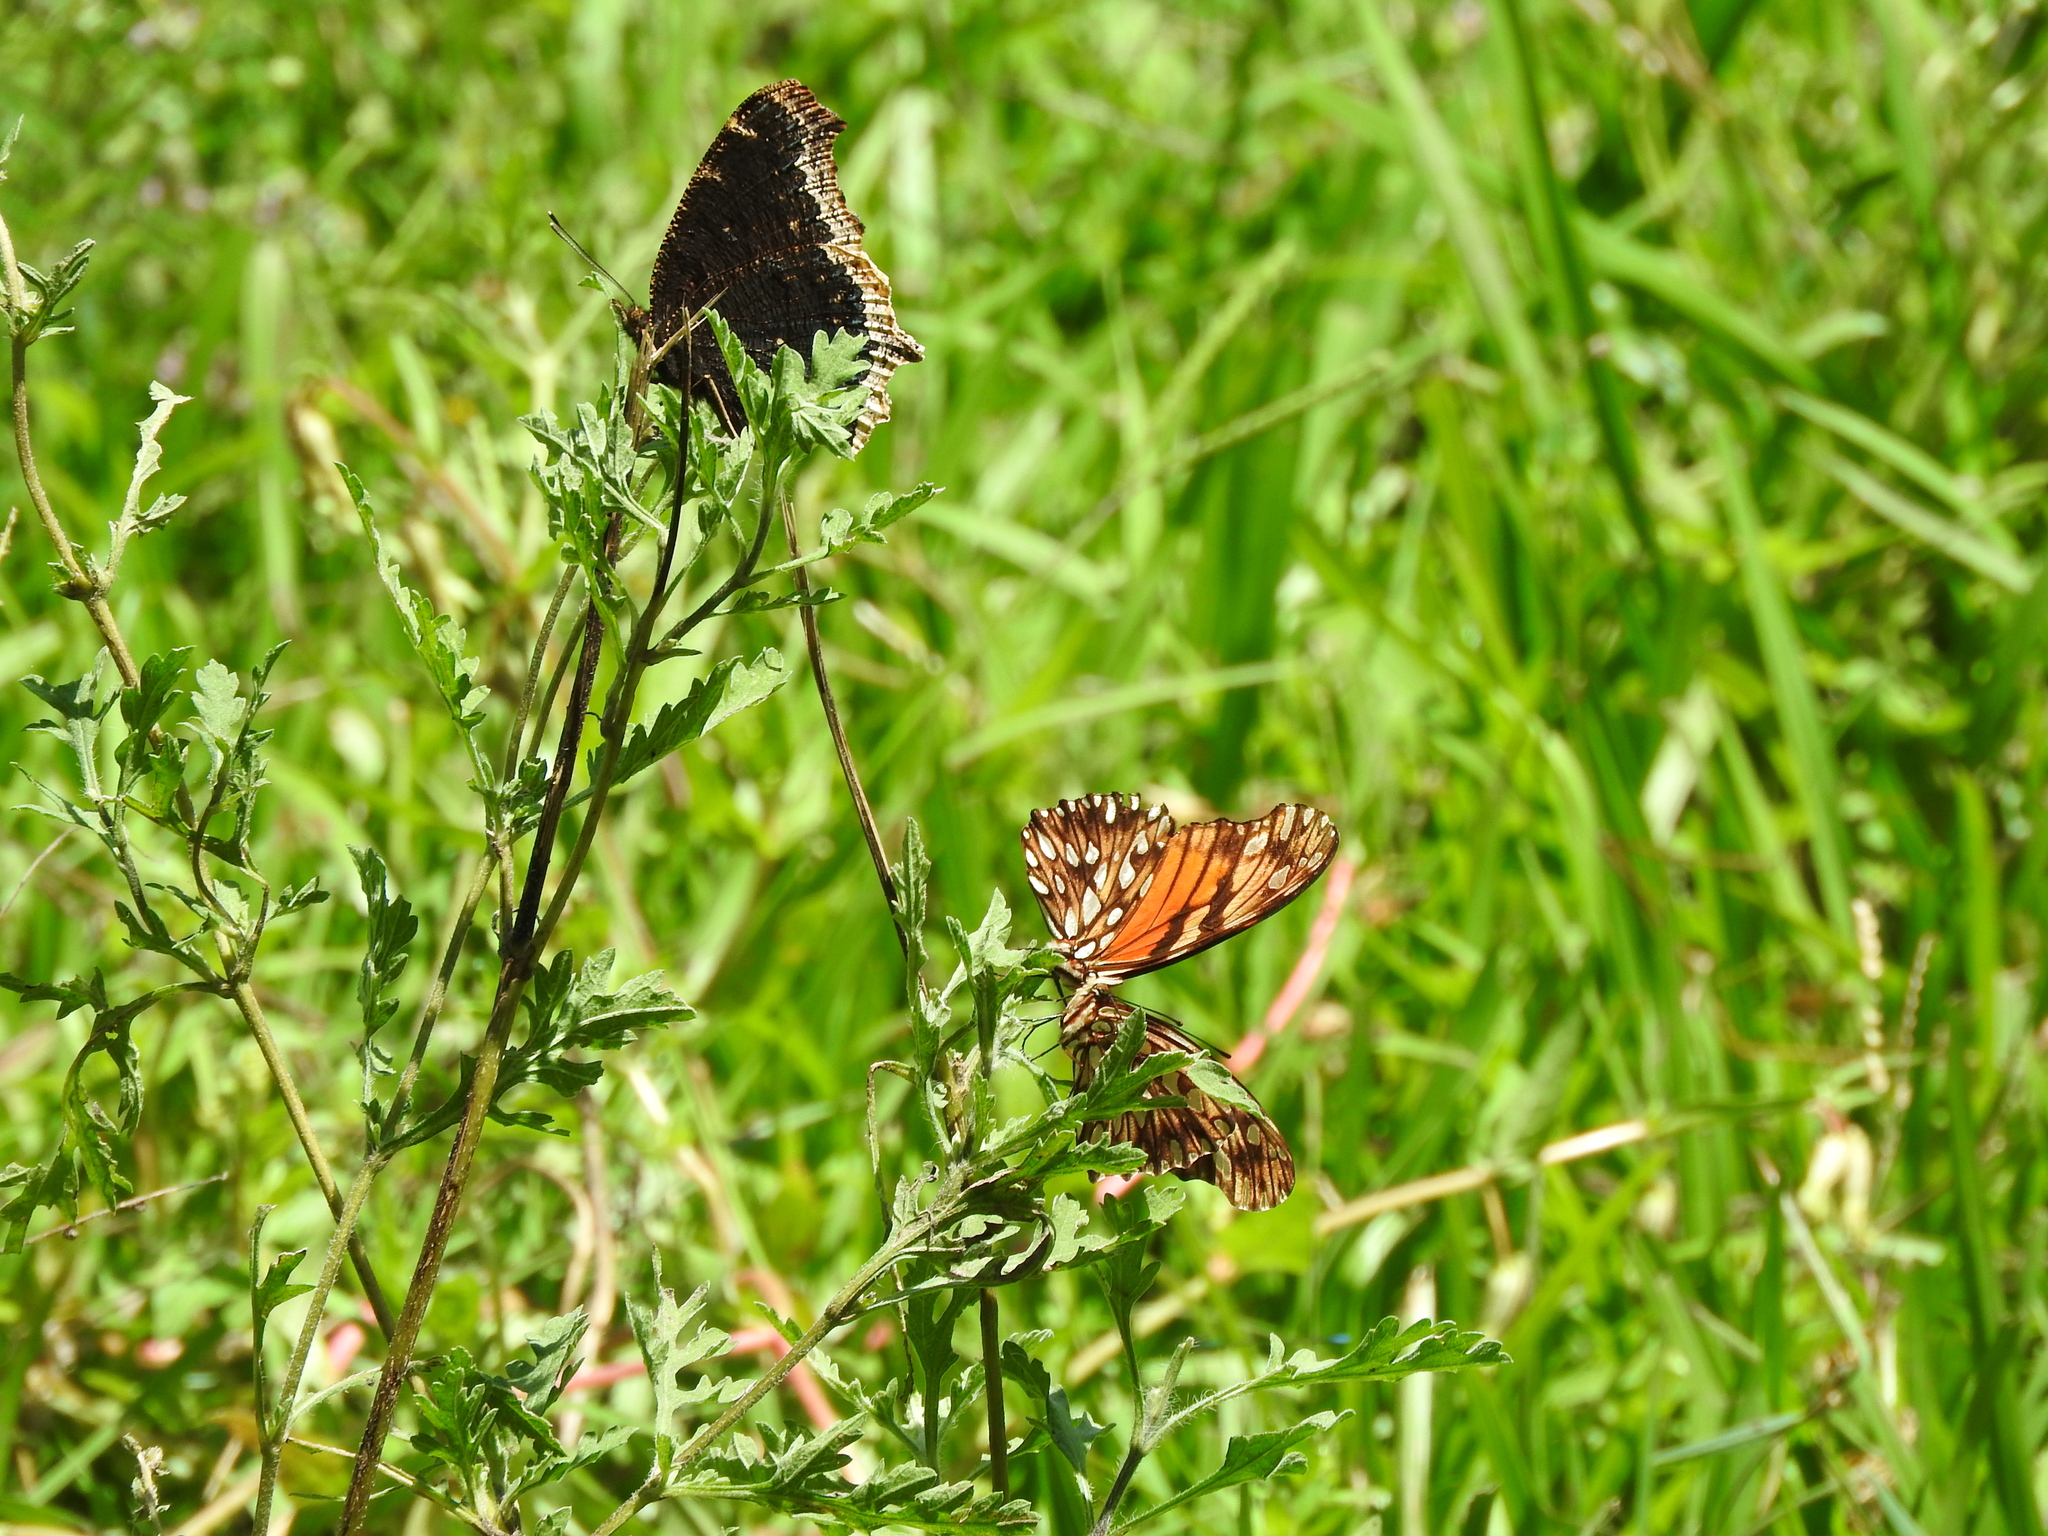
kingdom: Animalia
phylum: Arthropoda
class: Insecta
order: Lepidoptera
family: Nymphalidae
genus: Nymphalis
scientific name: Nymphalis antiopa
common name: Camberwell beauty
